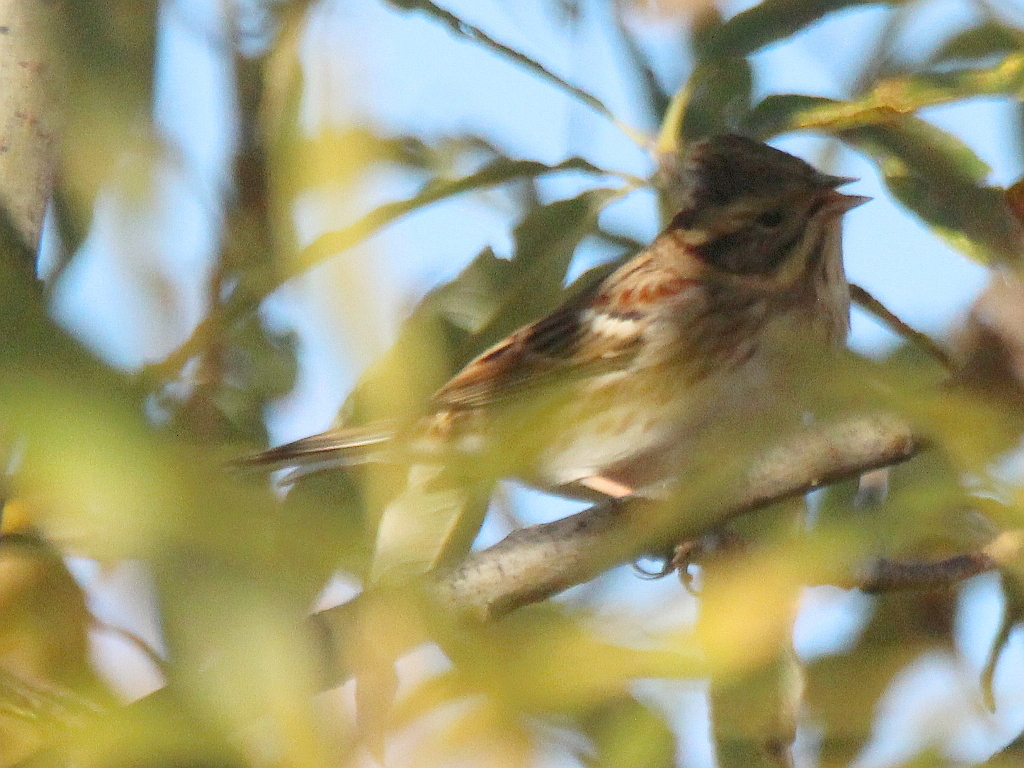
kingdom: Animalia
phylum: Chordata
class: Aves
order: Passeriformes
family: Emberizidae
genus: Emberiza
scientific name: Emberiza rustica
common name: Rustic bunting
